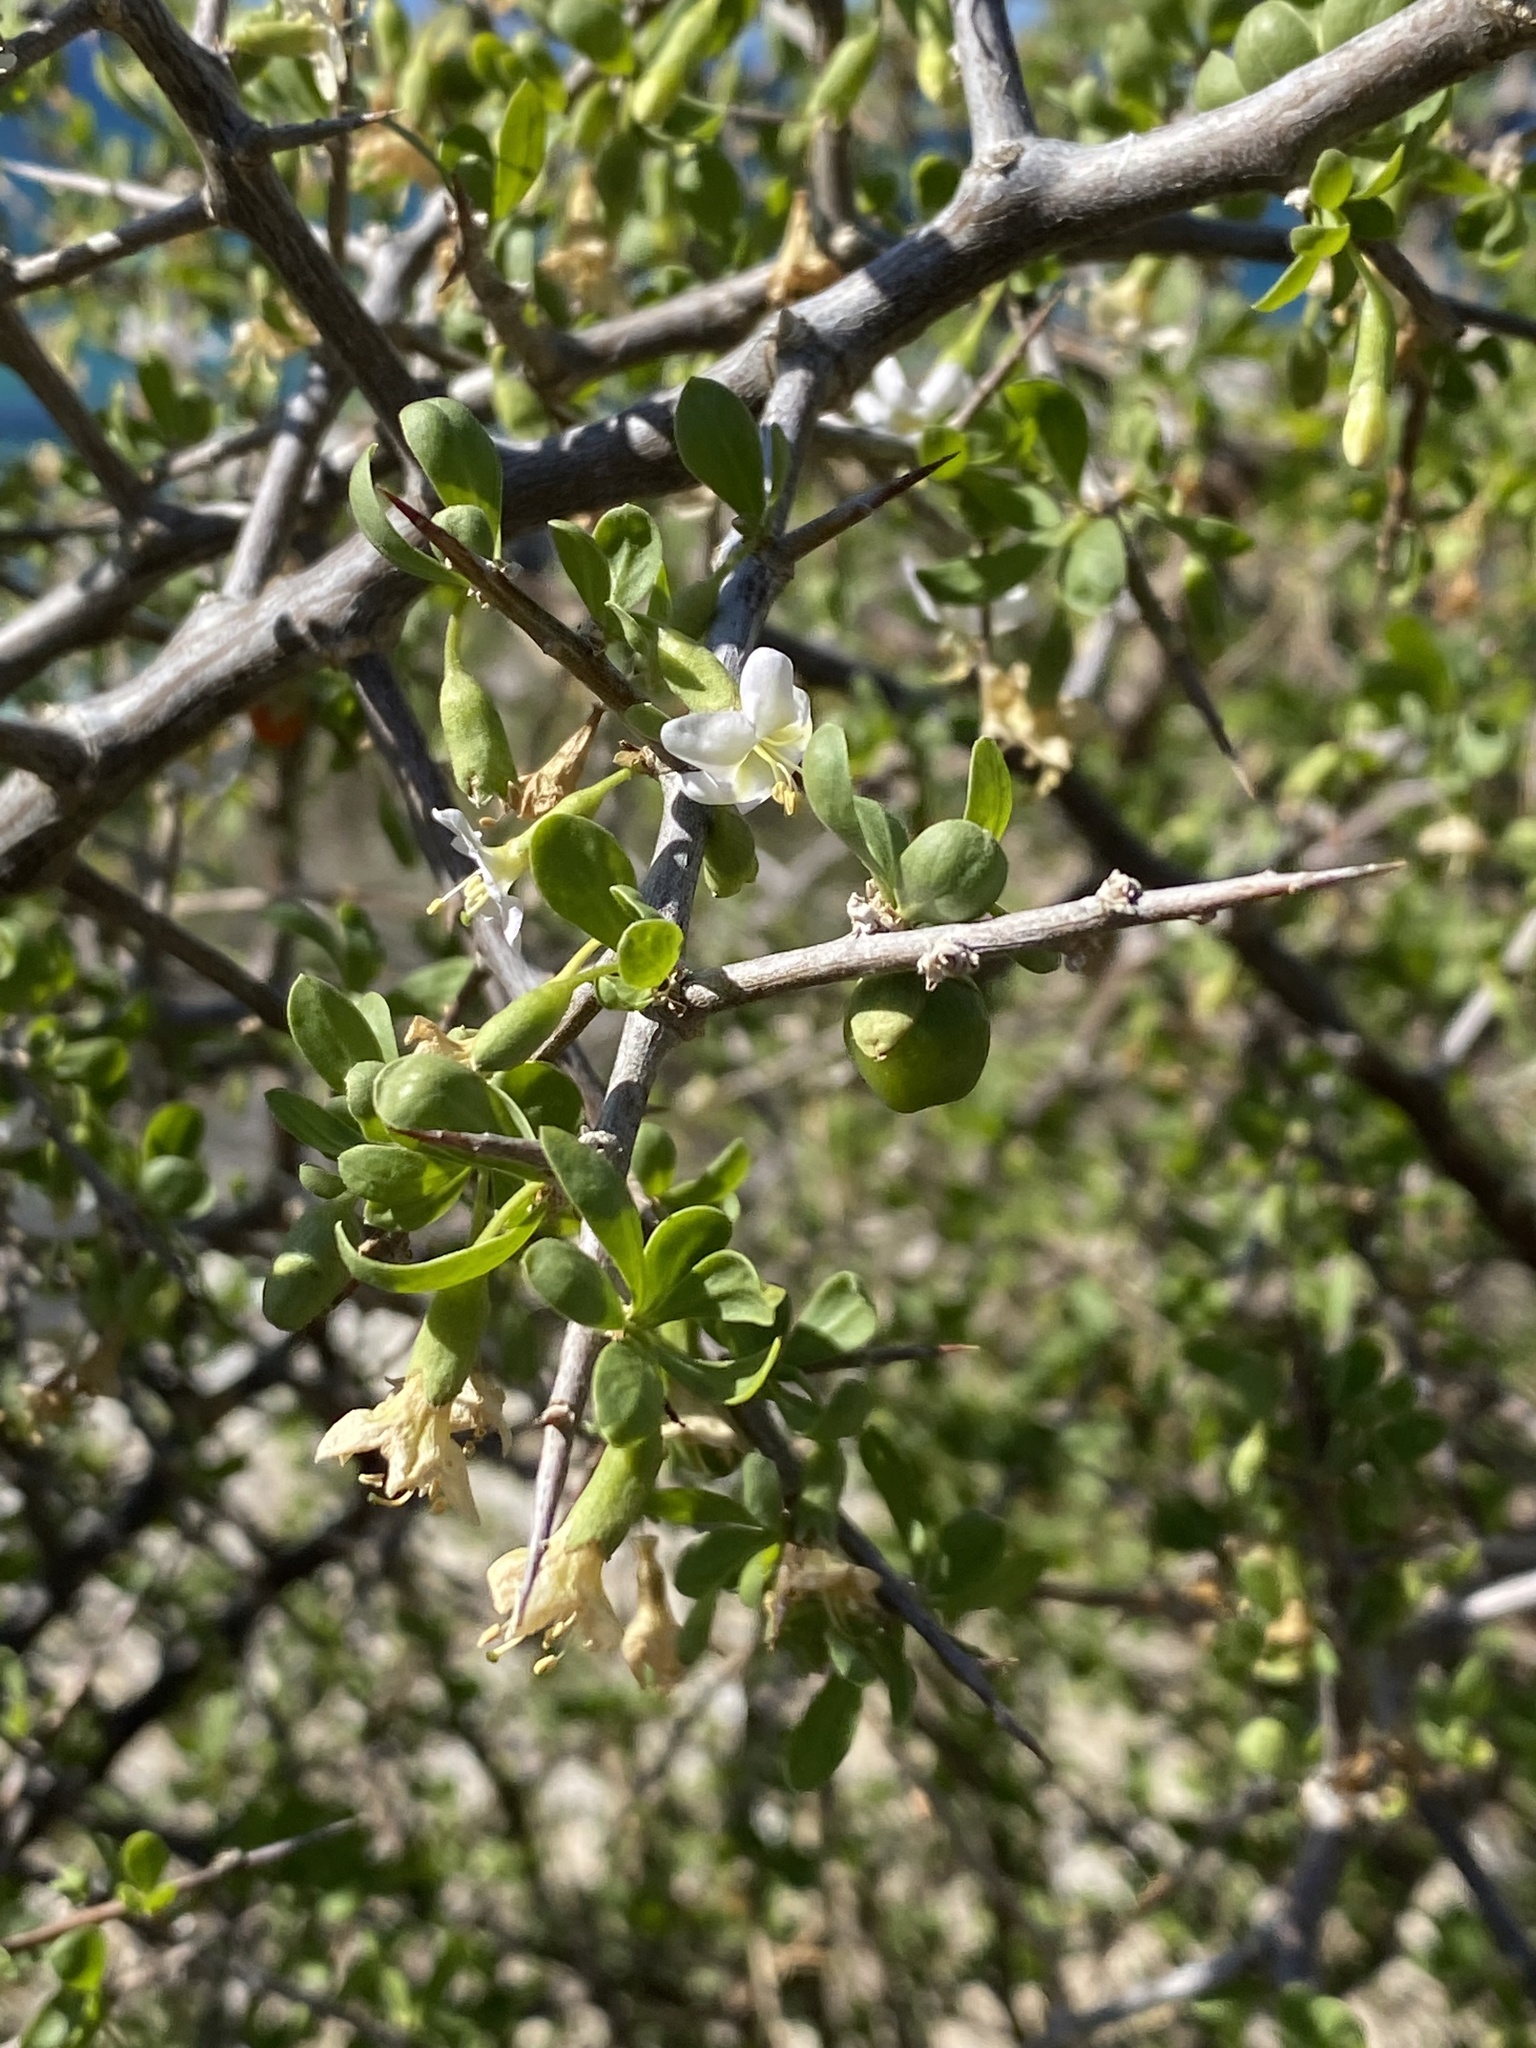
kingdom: Plantae
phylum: Tracheophyta
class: Magnoliopsida
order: Solanales
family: Solanaceae
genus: Lycium
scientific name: Lycium ferocissimum
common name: African boxthorn
